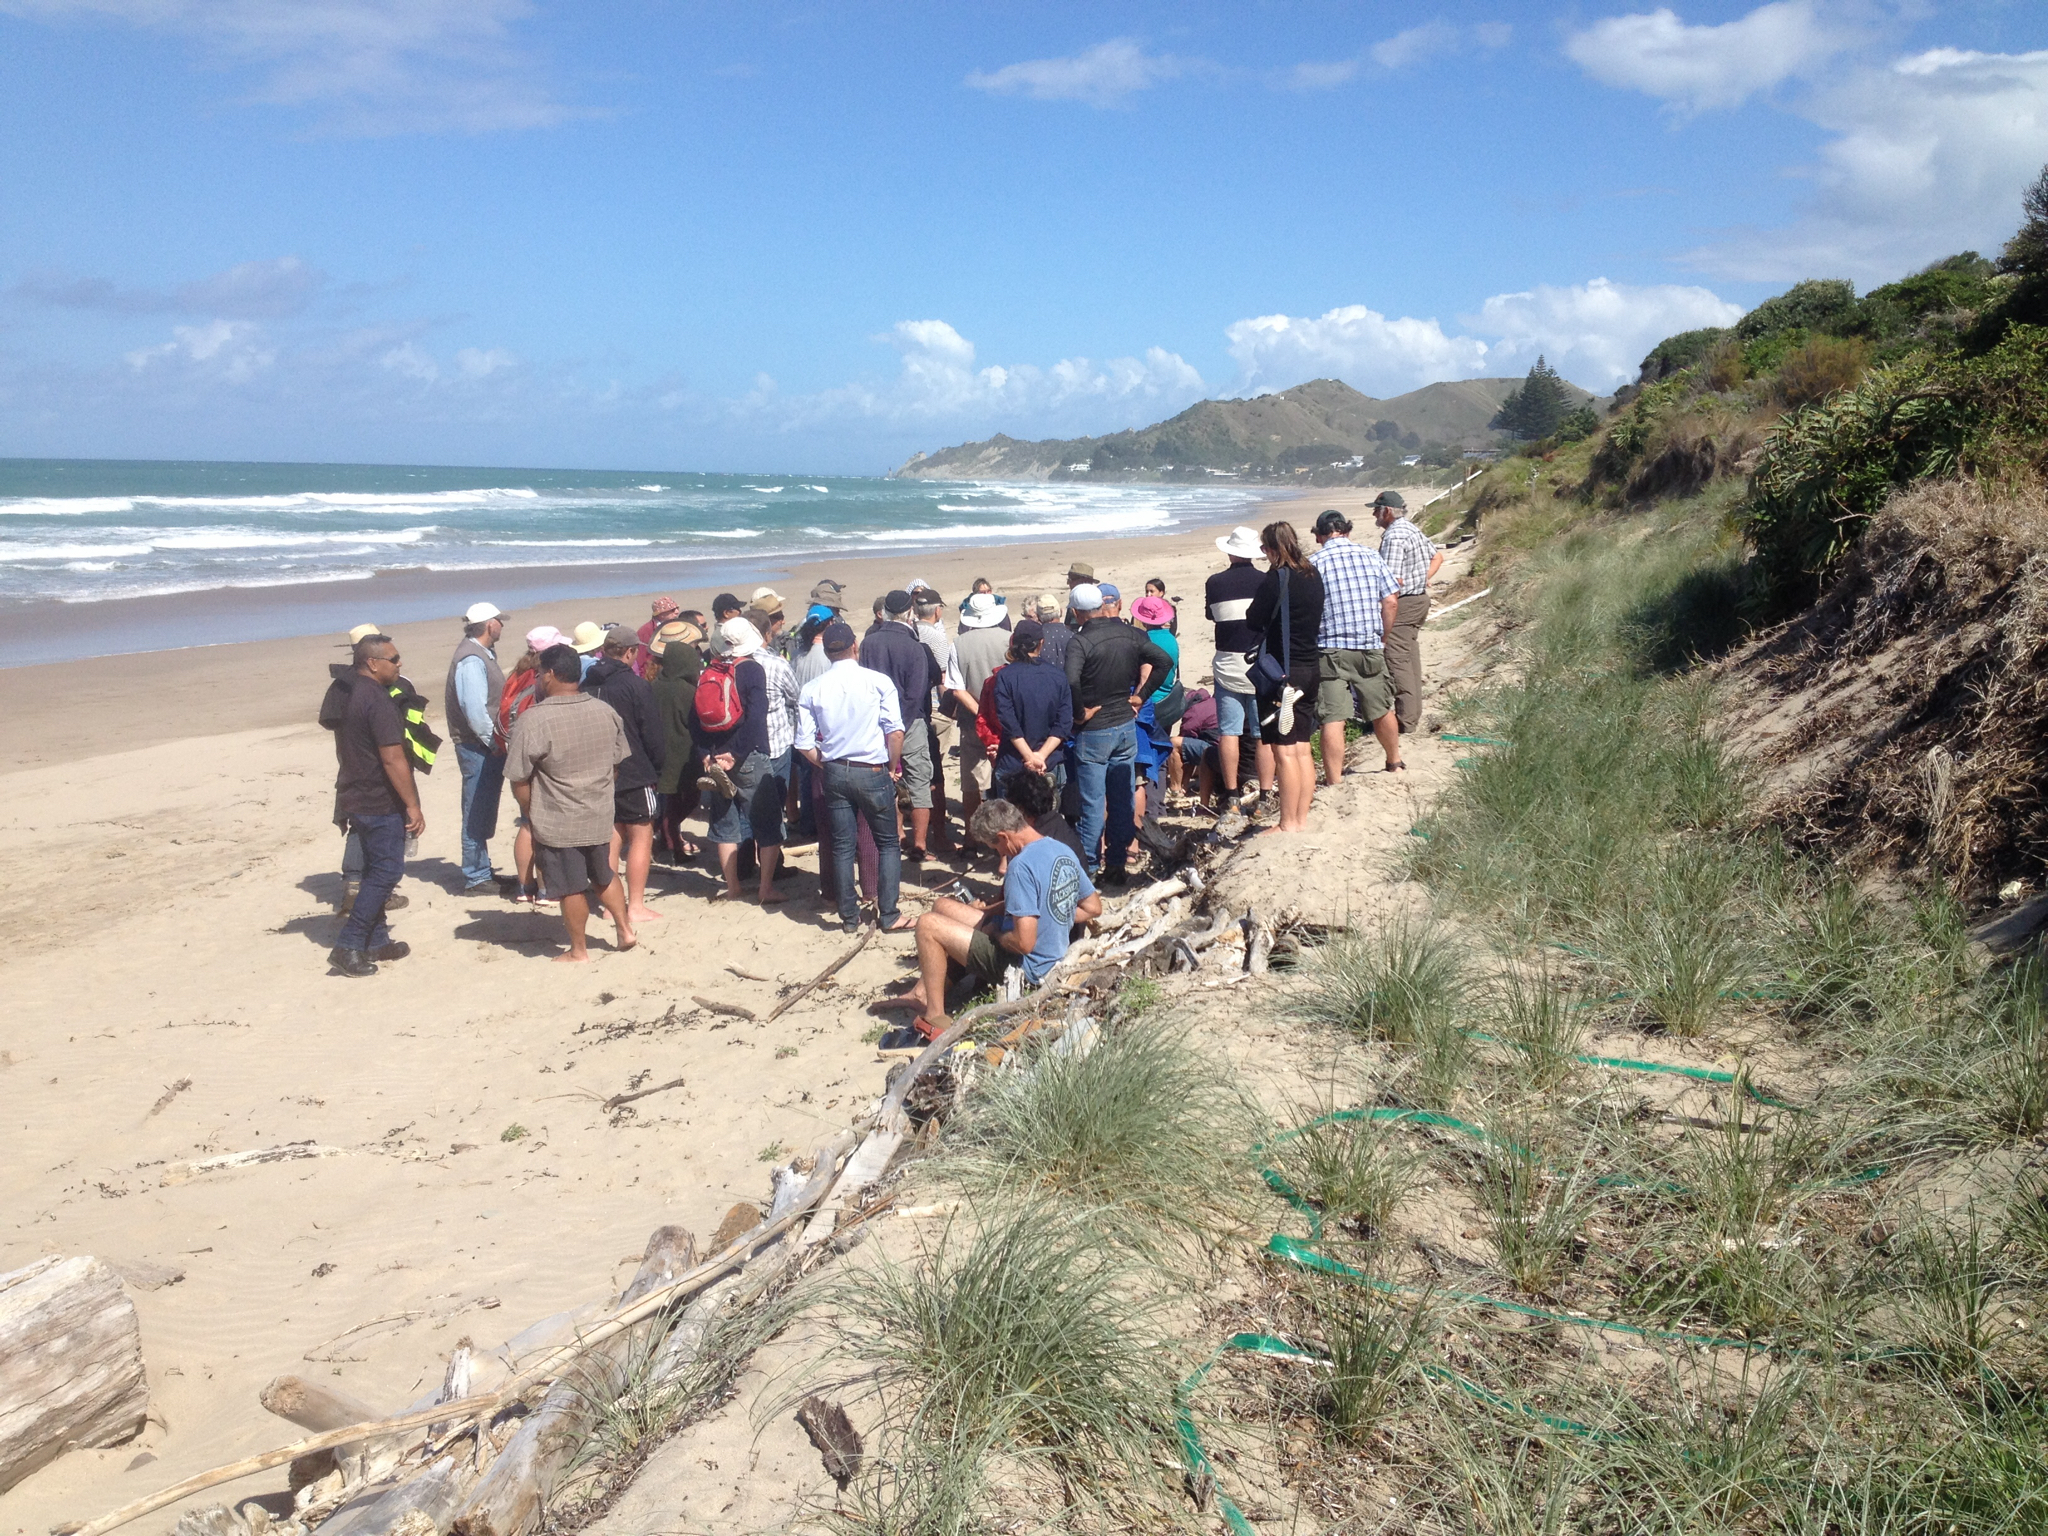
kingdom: Plantae
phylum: Tracheophyta
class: Liliopsida
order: Poales
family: Poaceae
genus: Spinifex
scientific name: Spinifex sericeus
